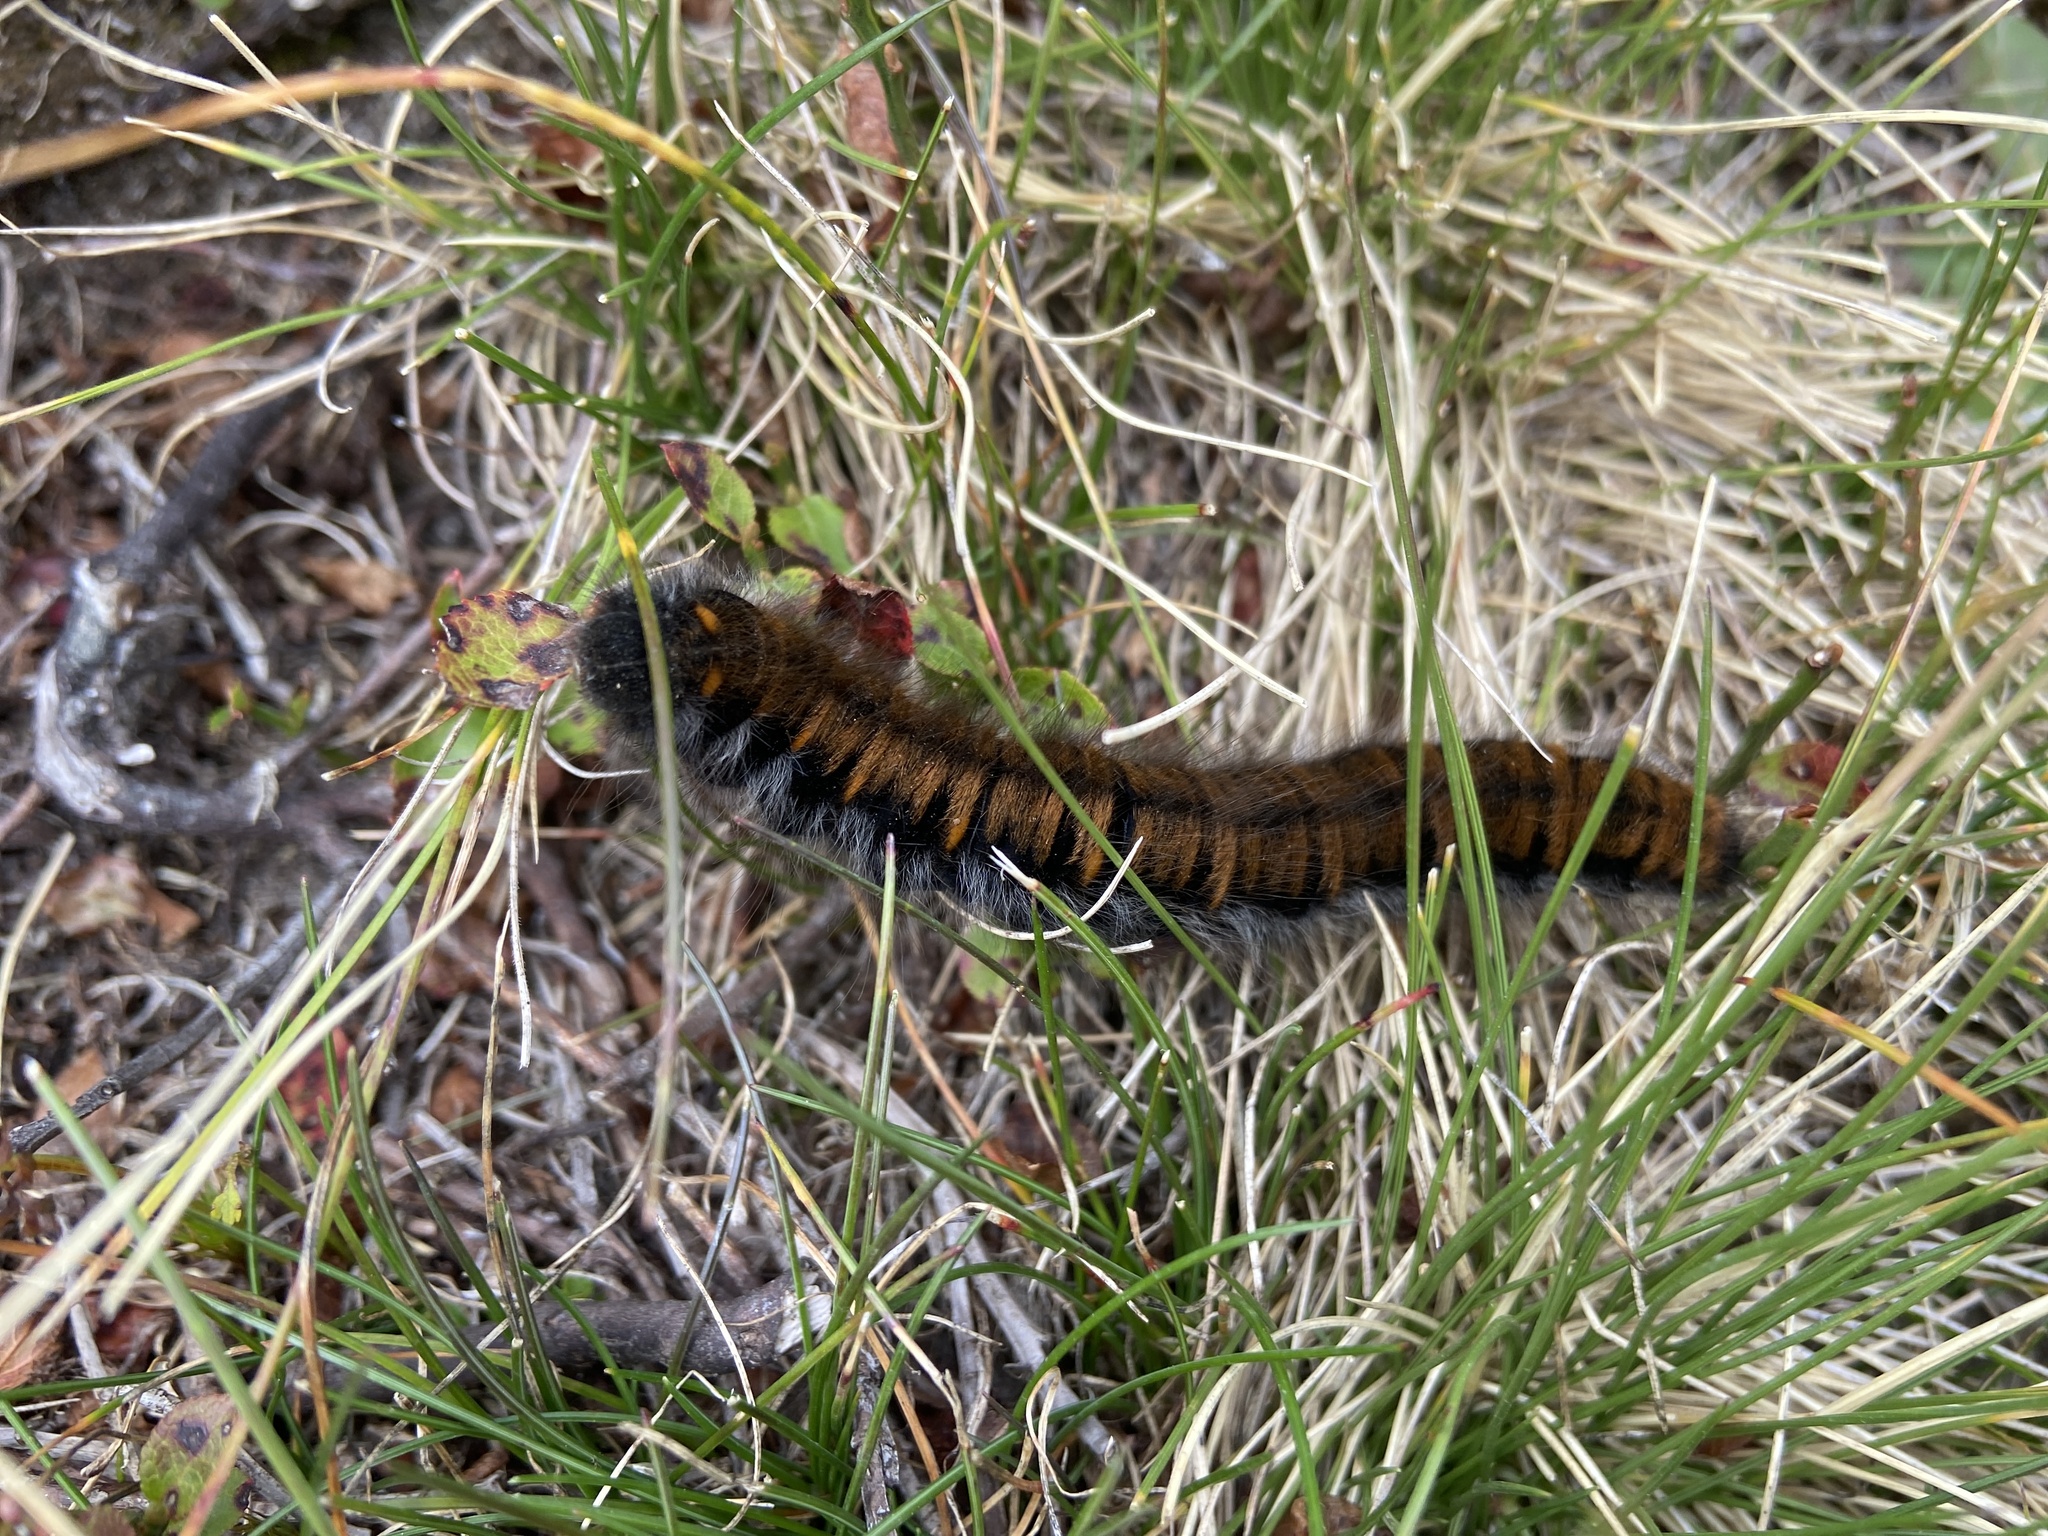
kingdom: Animalia
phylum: Arthropoda
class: Insecta
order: Lepidoptera
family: Lasiocampidae
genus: Macrothylacia
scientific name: Macrothylacia rubi
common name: Fox moth
